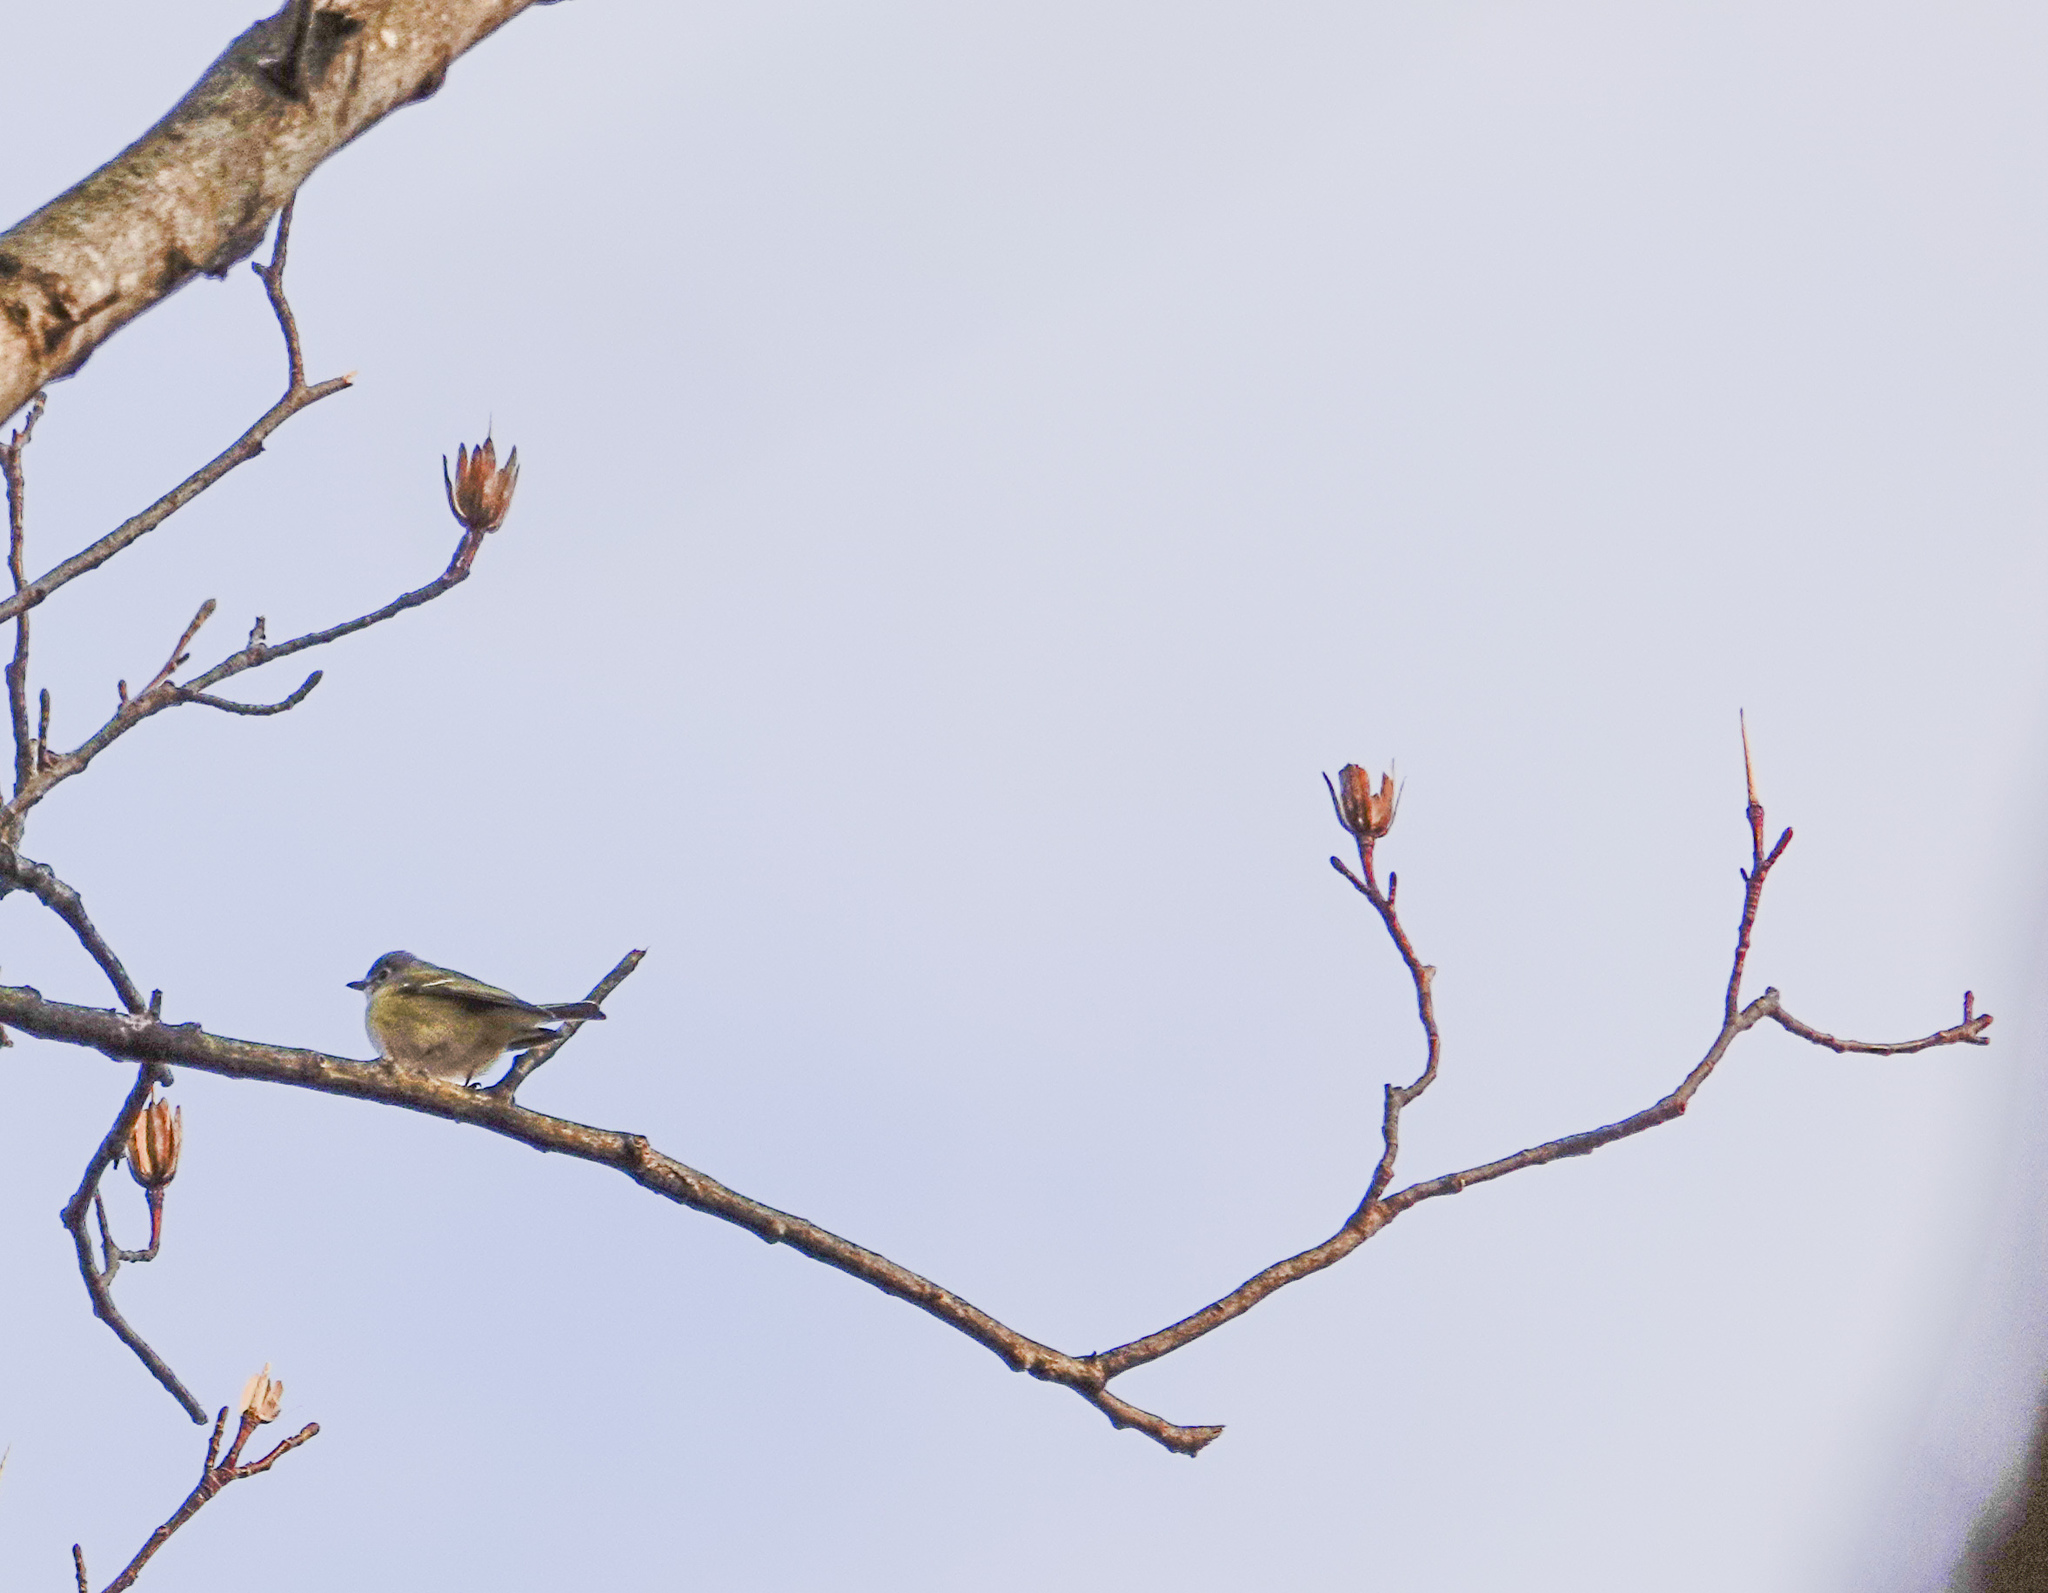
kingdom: Animalia
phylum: Chordata
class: Aves
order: Passeriformes
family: Vireonidae
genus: Vireo
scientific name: Vireo solitarius
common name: Blue-headed vireo
